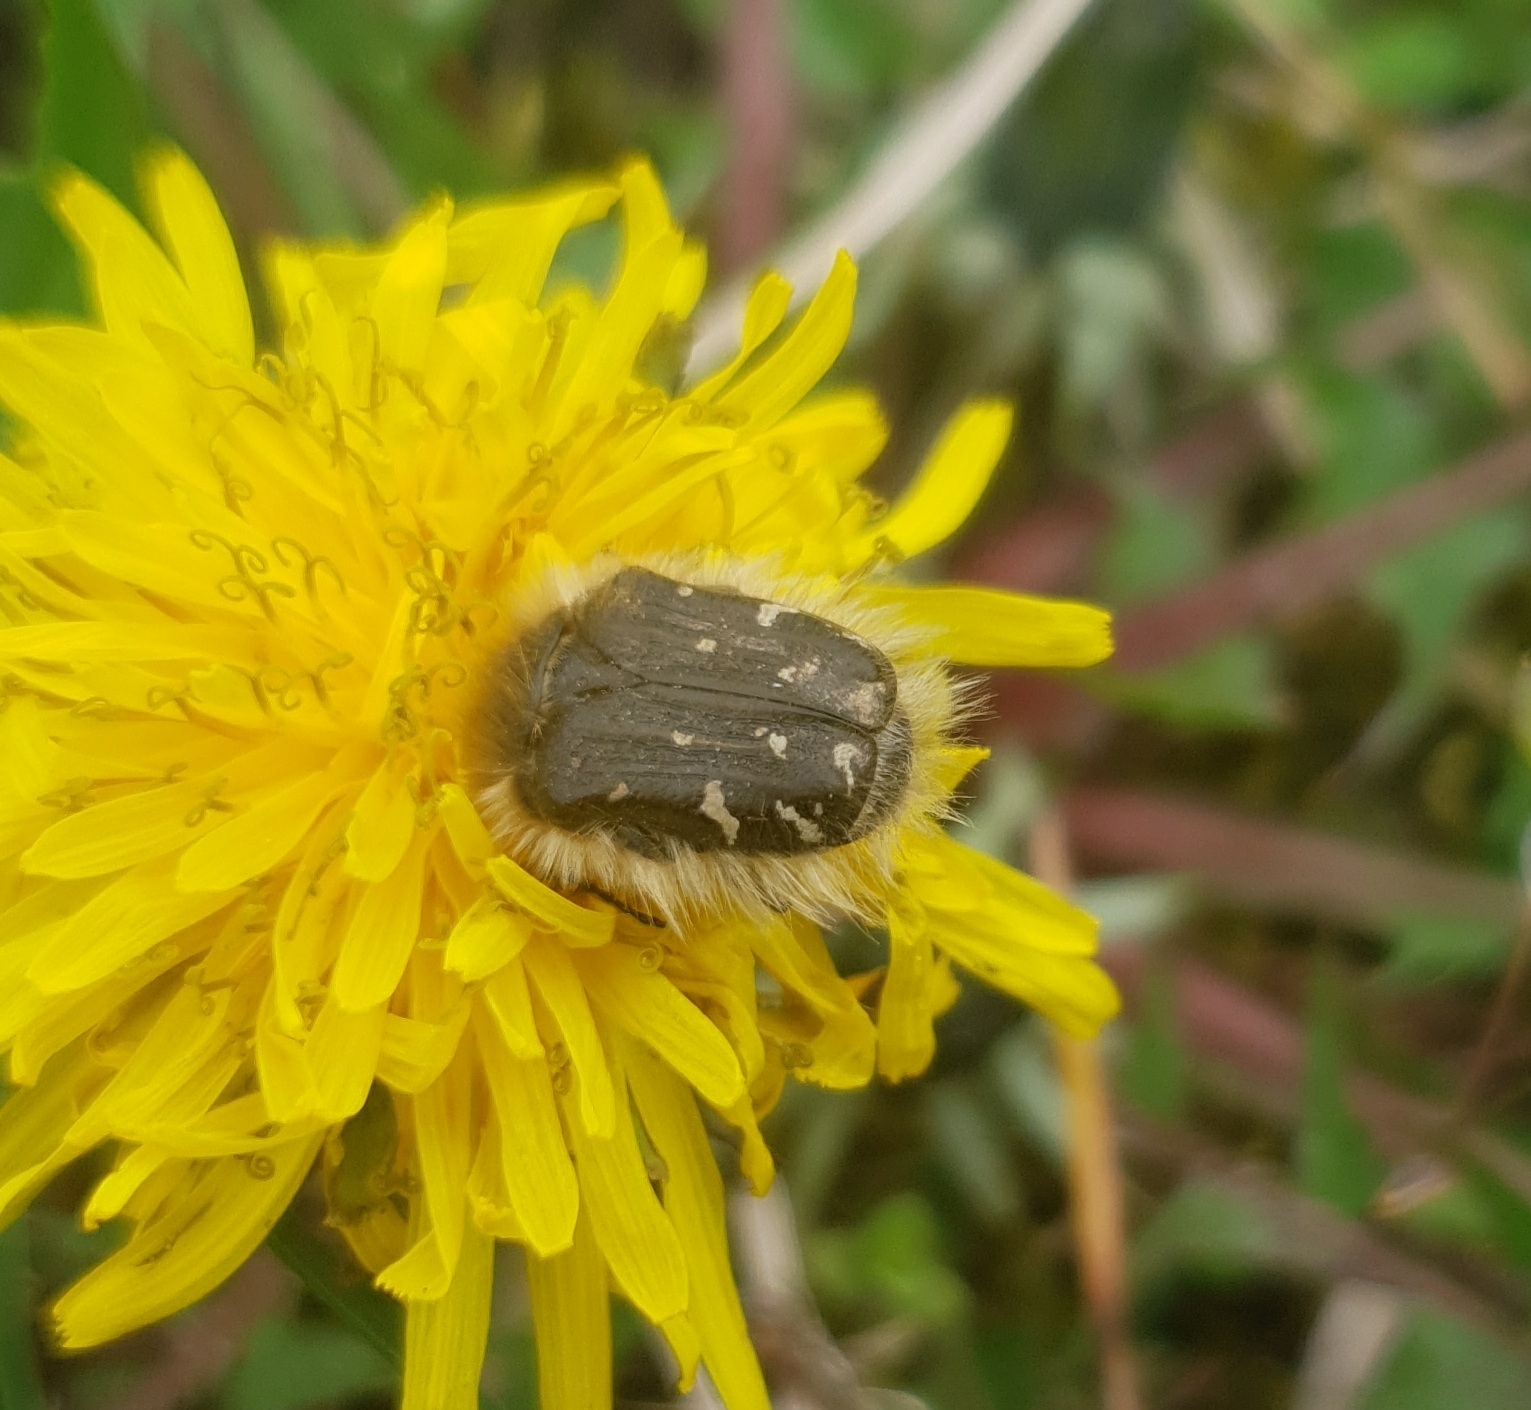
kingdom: Animalia
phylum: Arthropoda
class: Insecta
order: Coleoptera
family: Scarabaeidae
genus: Tropinota
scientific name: Tropinota hirta
